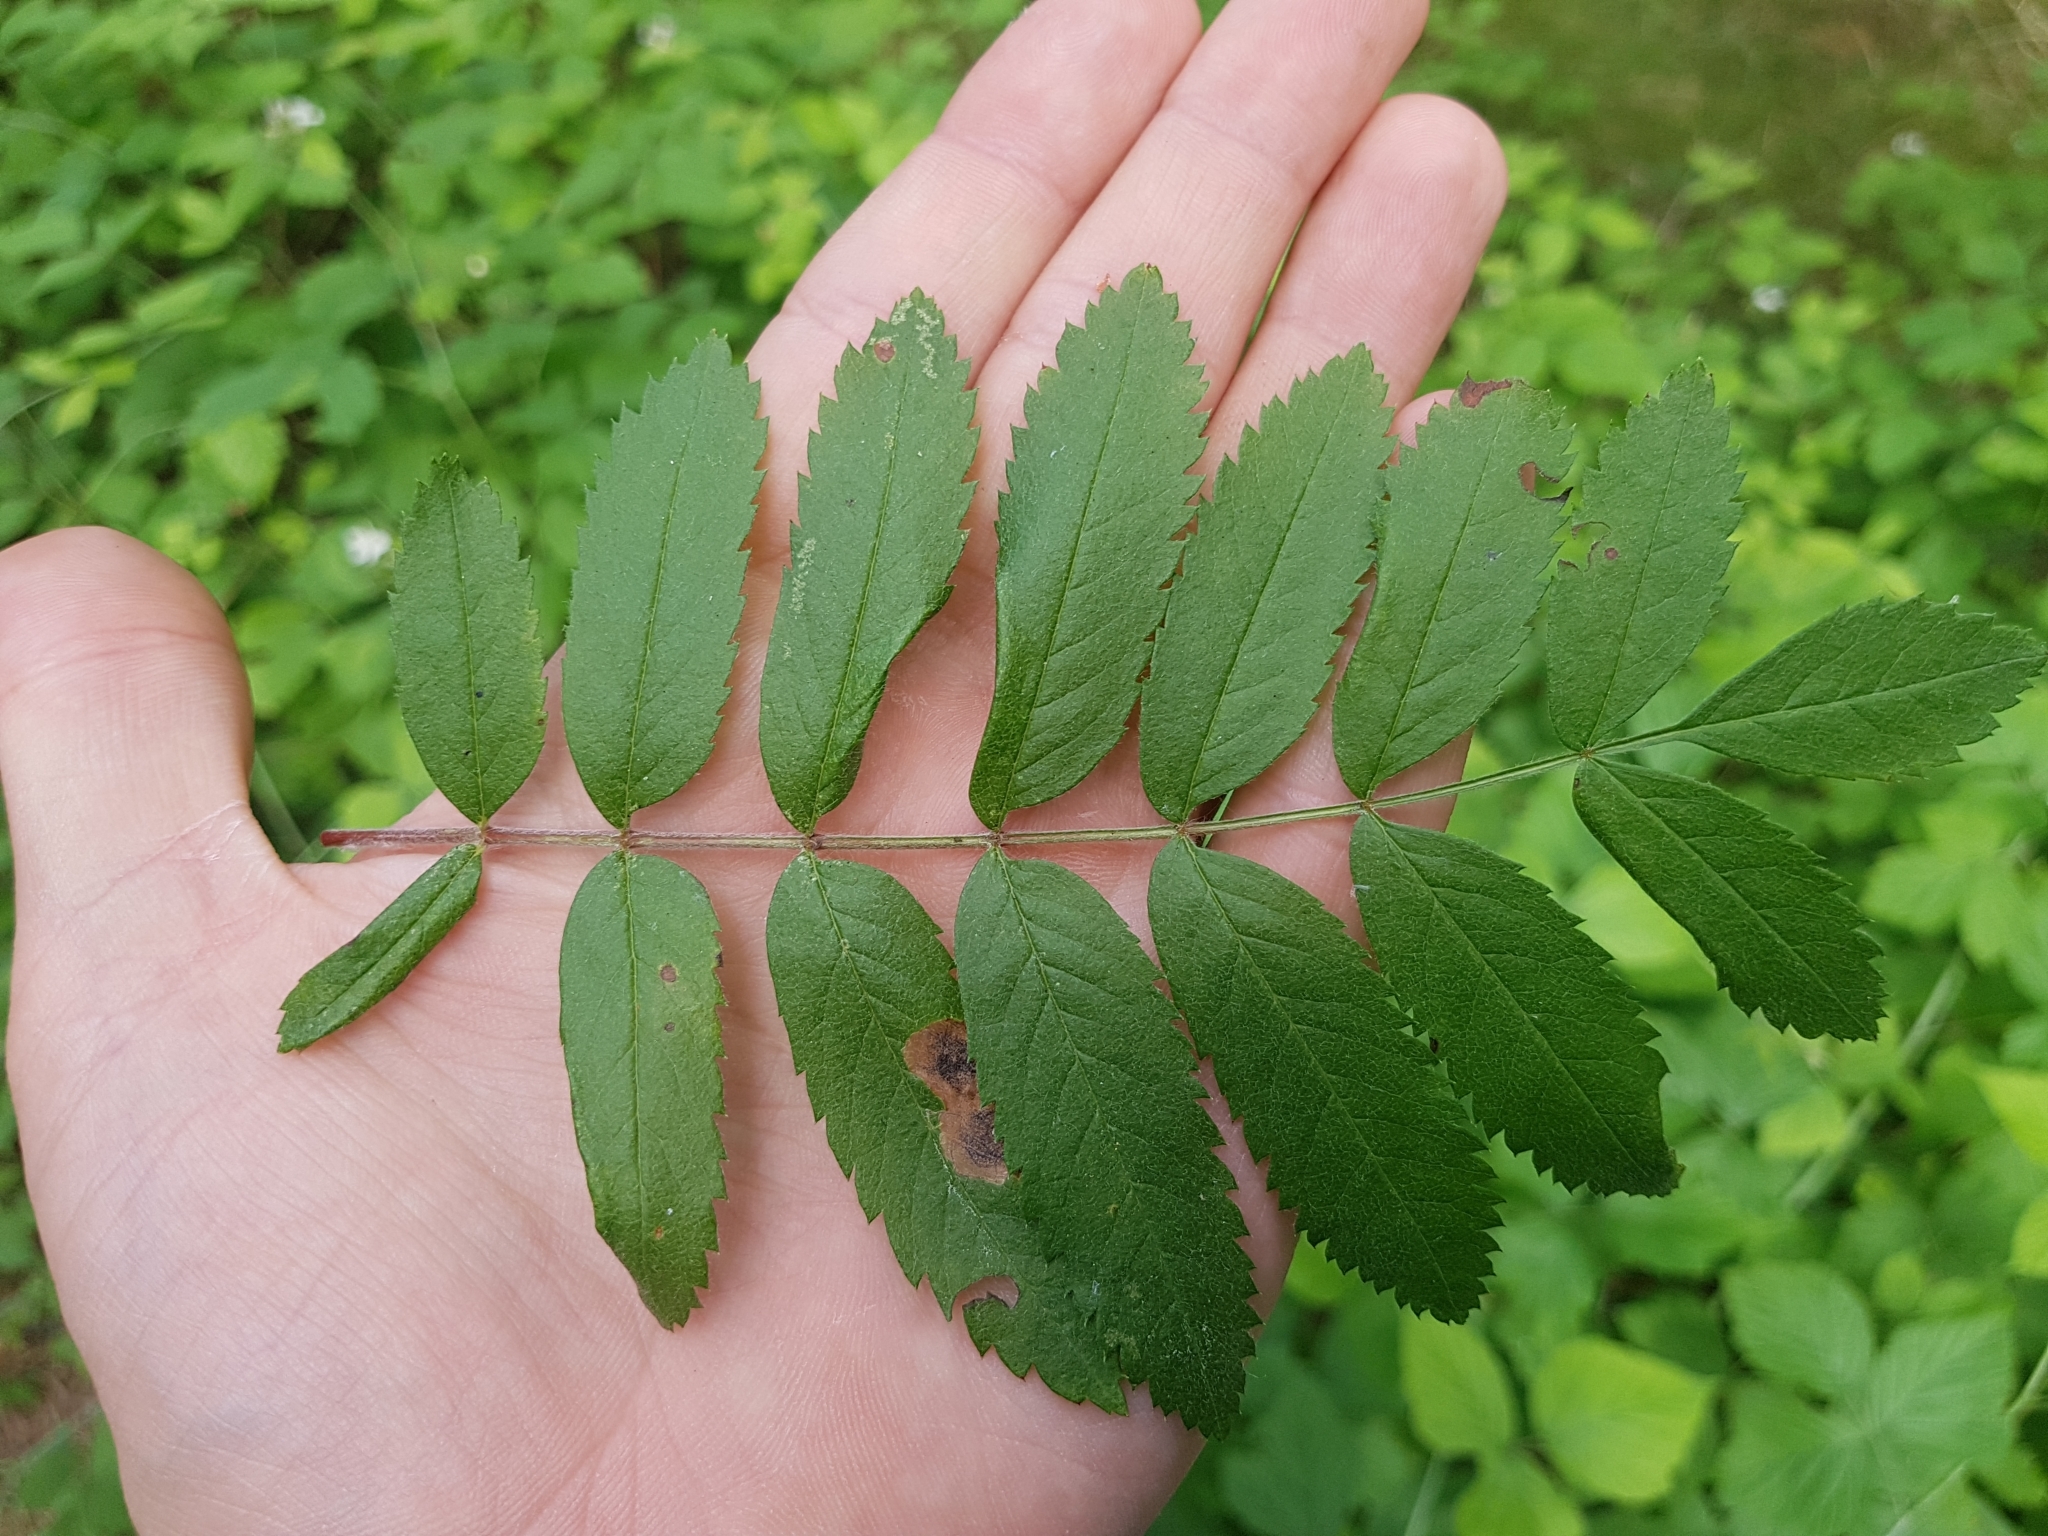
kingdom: Plantae
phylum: Tracheophyta
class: Magnoliopsida
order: Rosales
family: Rosaceae
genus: Sorbus
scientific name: Sorbus aucuparia
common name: Rowan
